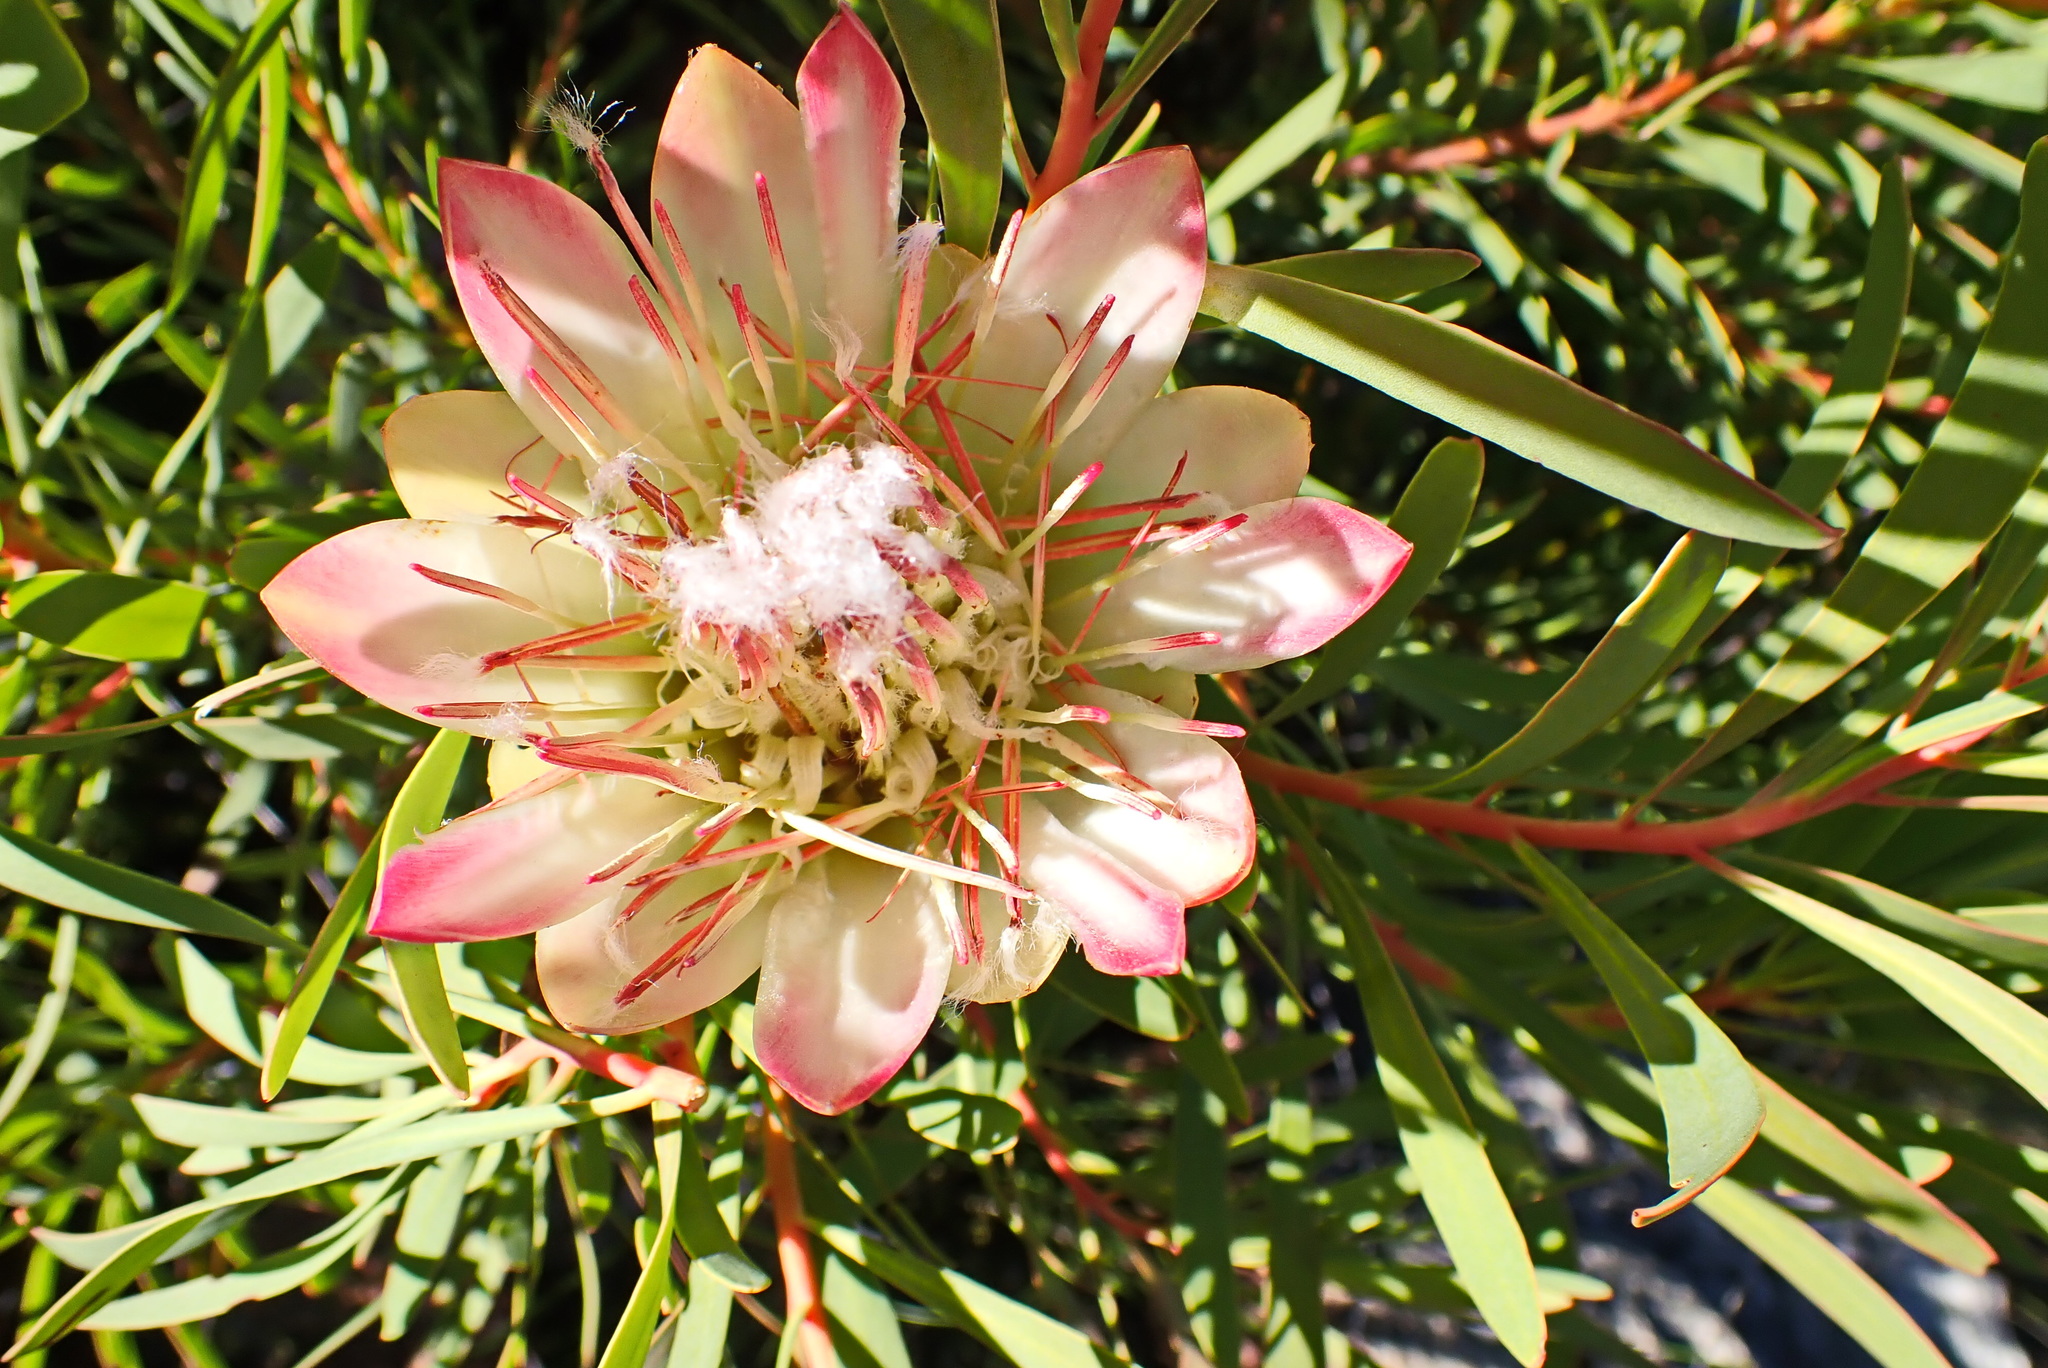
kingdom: Plantae
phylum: Tracheophyta
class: Magnoliopsida
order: Proteales
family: Proteaceae
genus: Protea
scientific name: Protea repens
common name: Sugarbush
